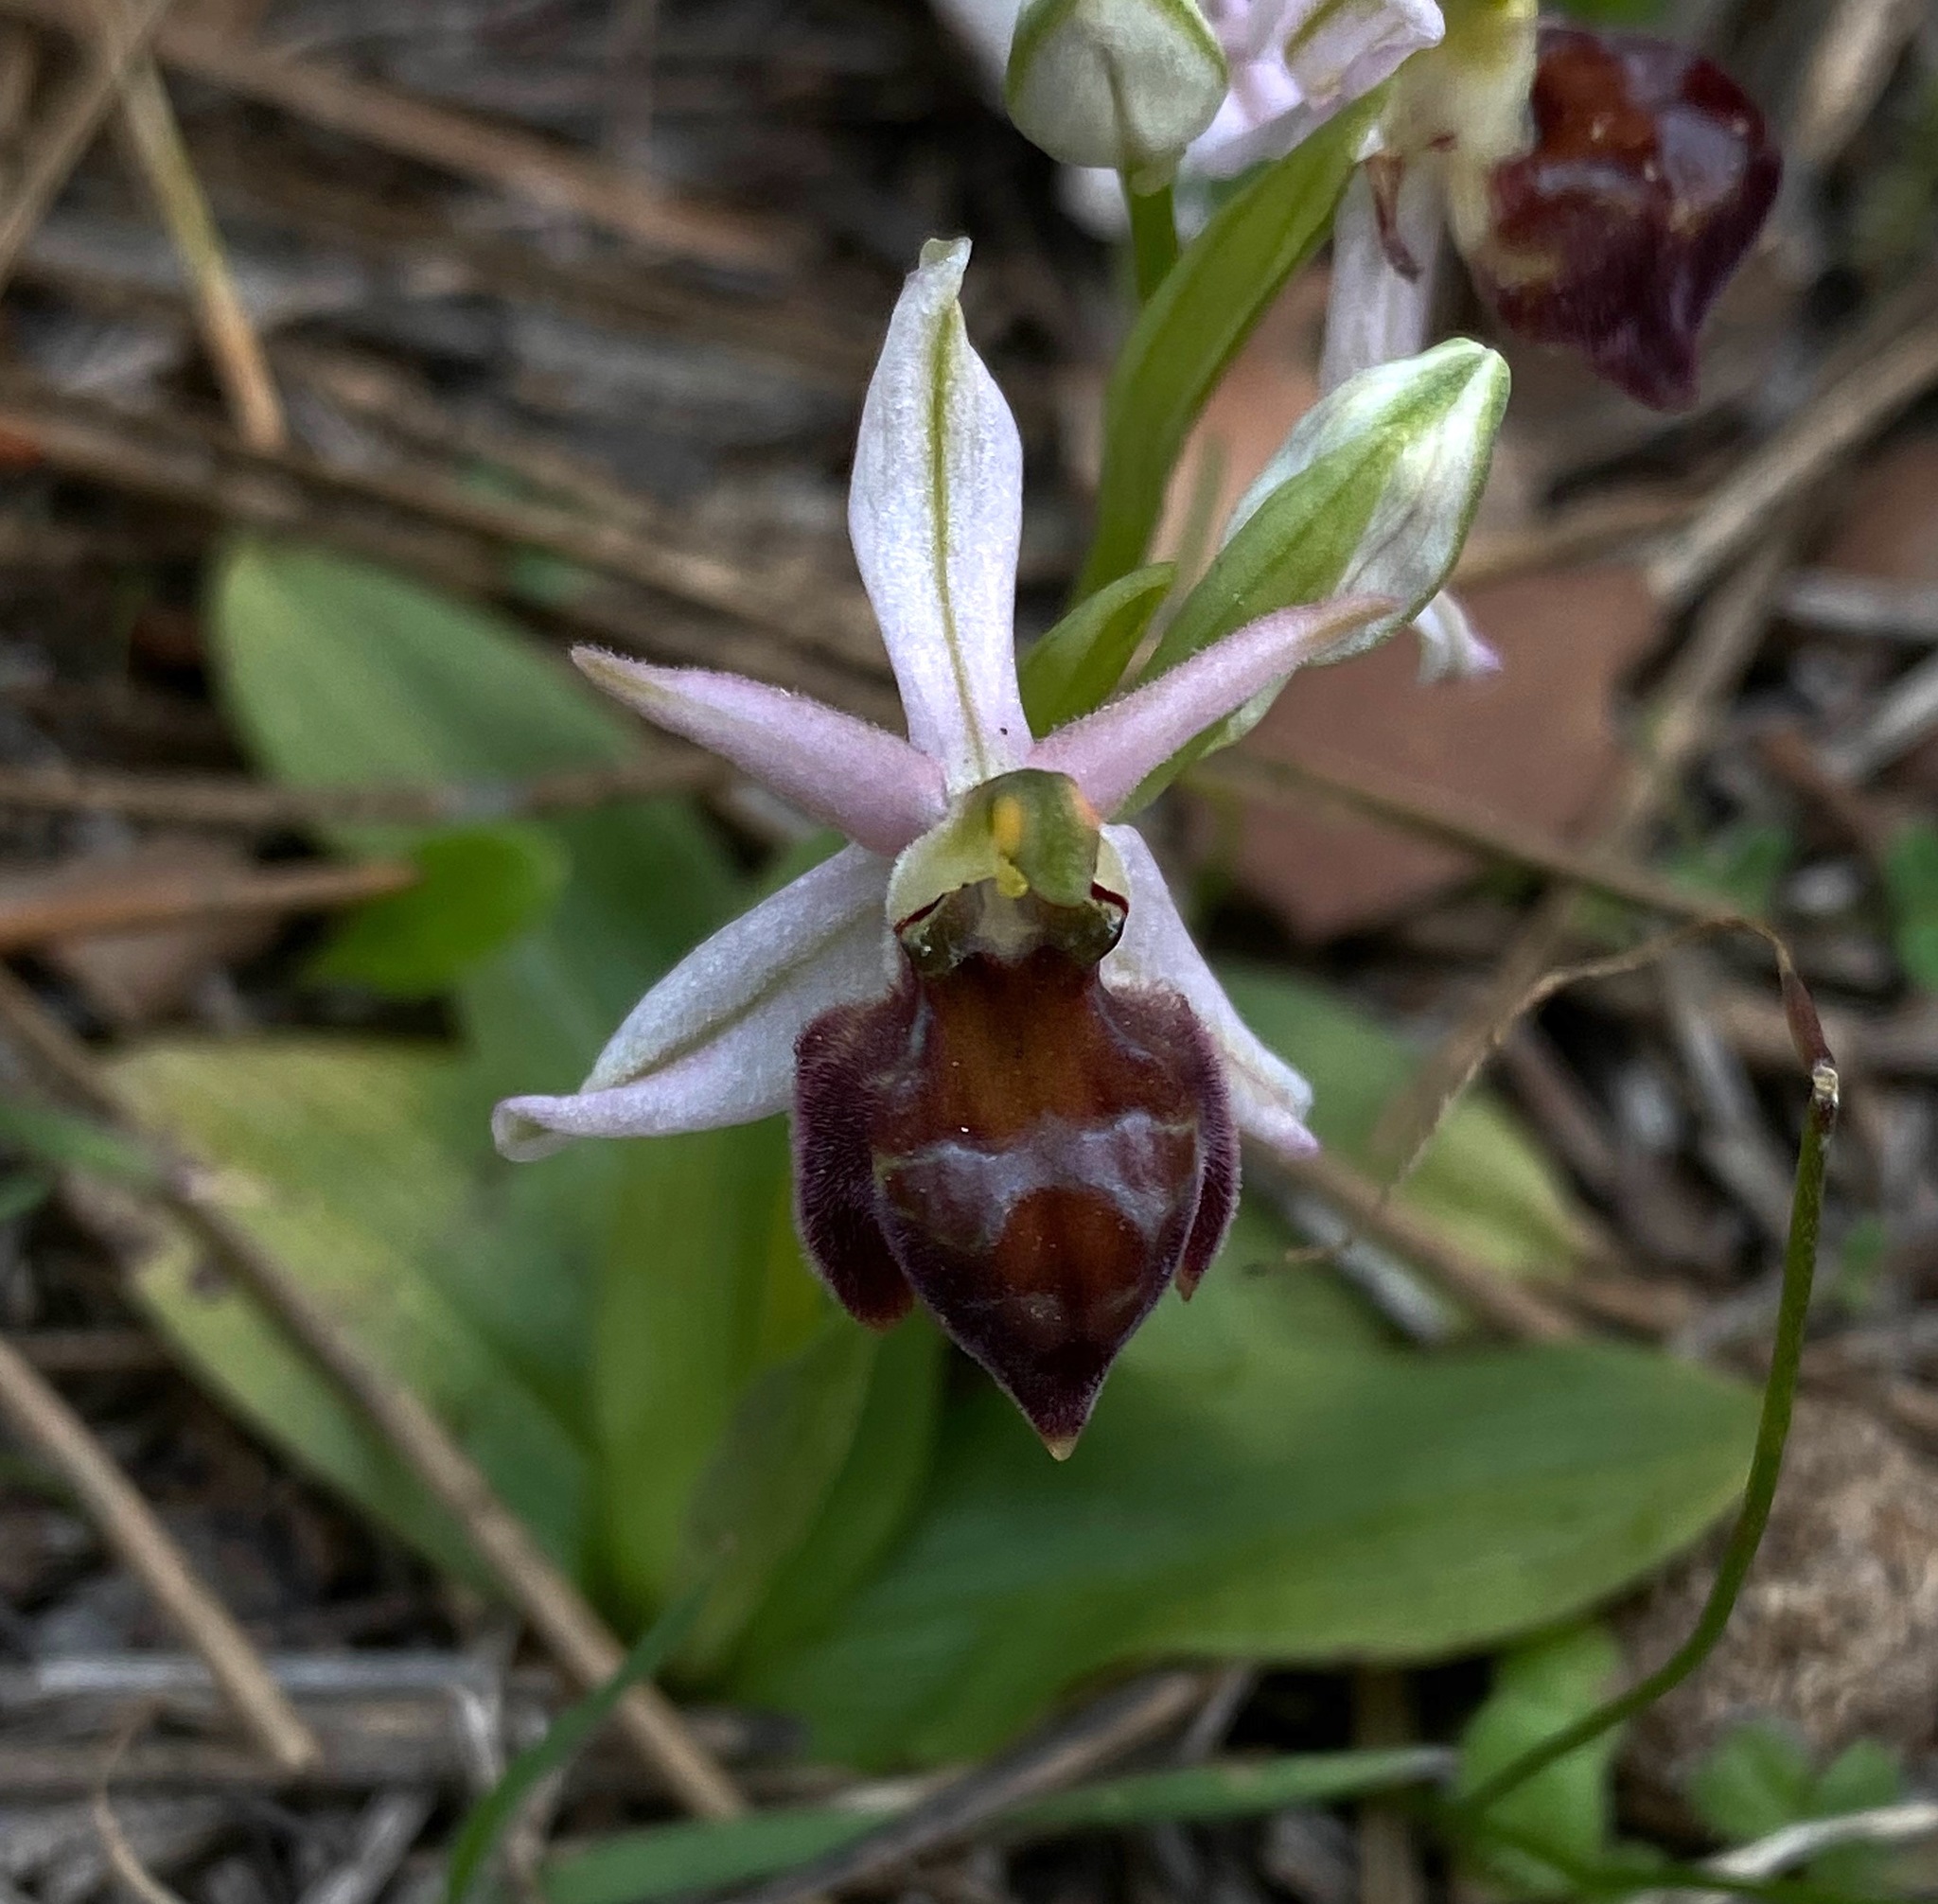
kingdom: Plantae
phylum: Tracheophyta
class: Liliopsida
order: Asparagales
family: Orchidaceae
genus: Ophrys
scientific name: Ophrys argolica
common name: Argolic ophrys
